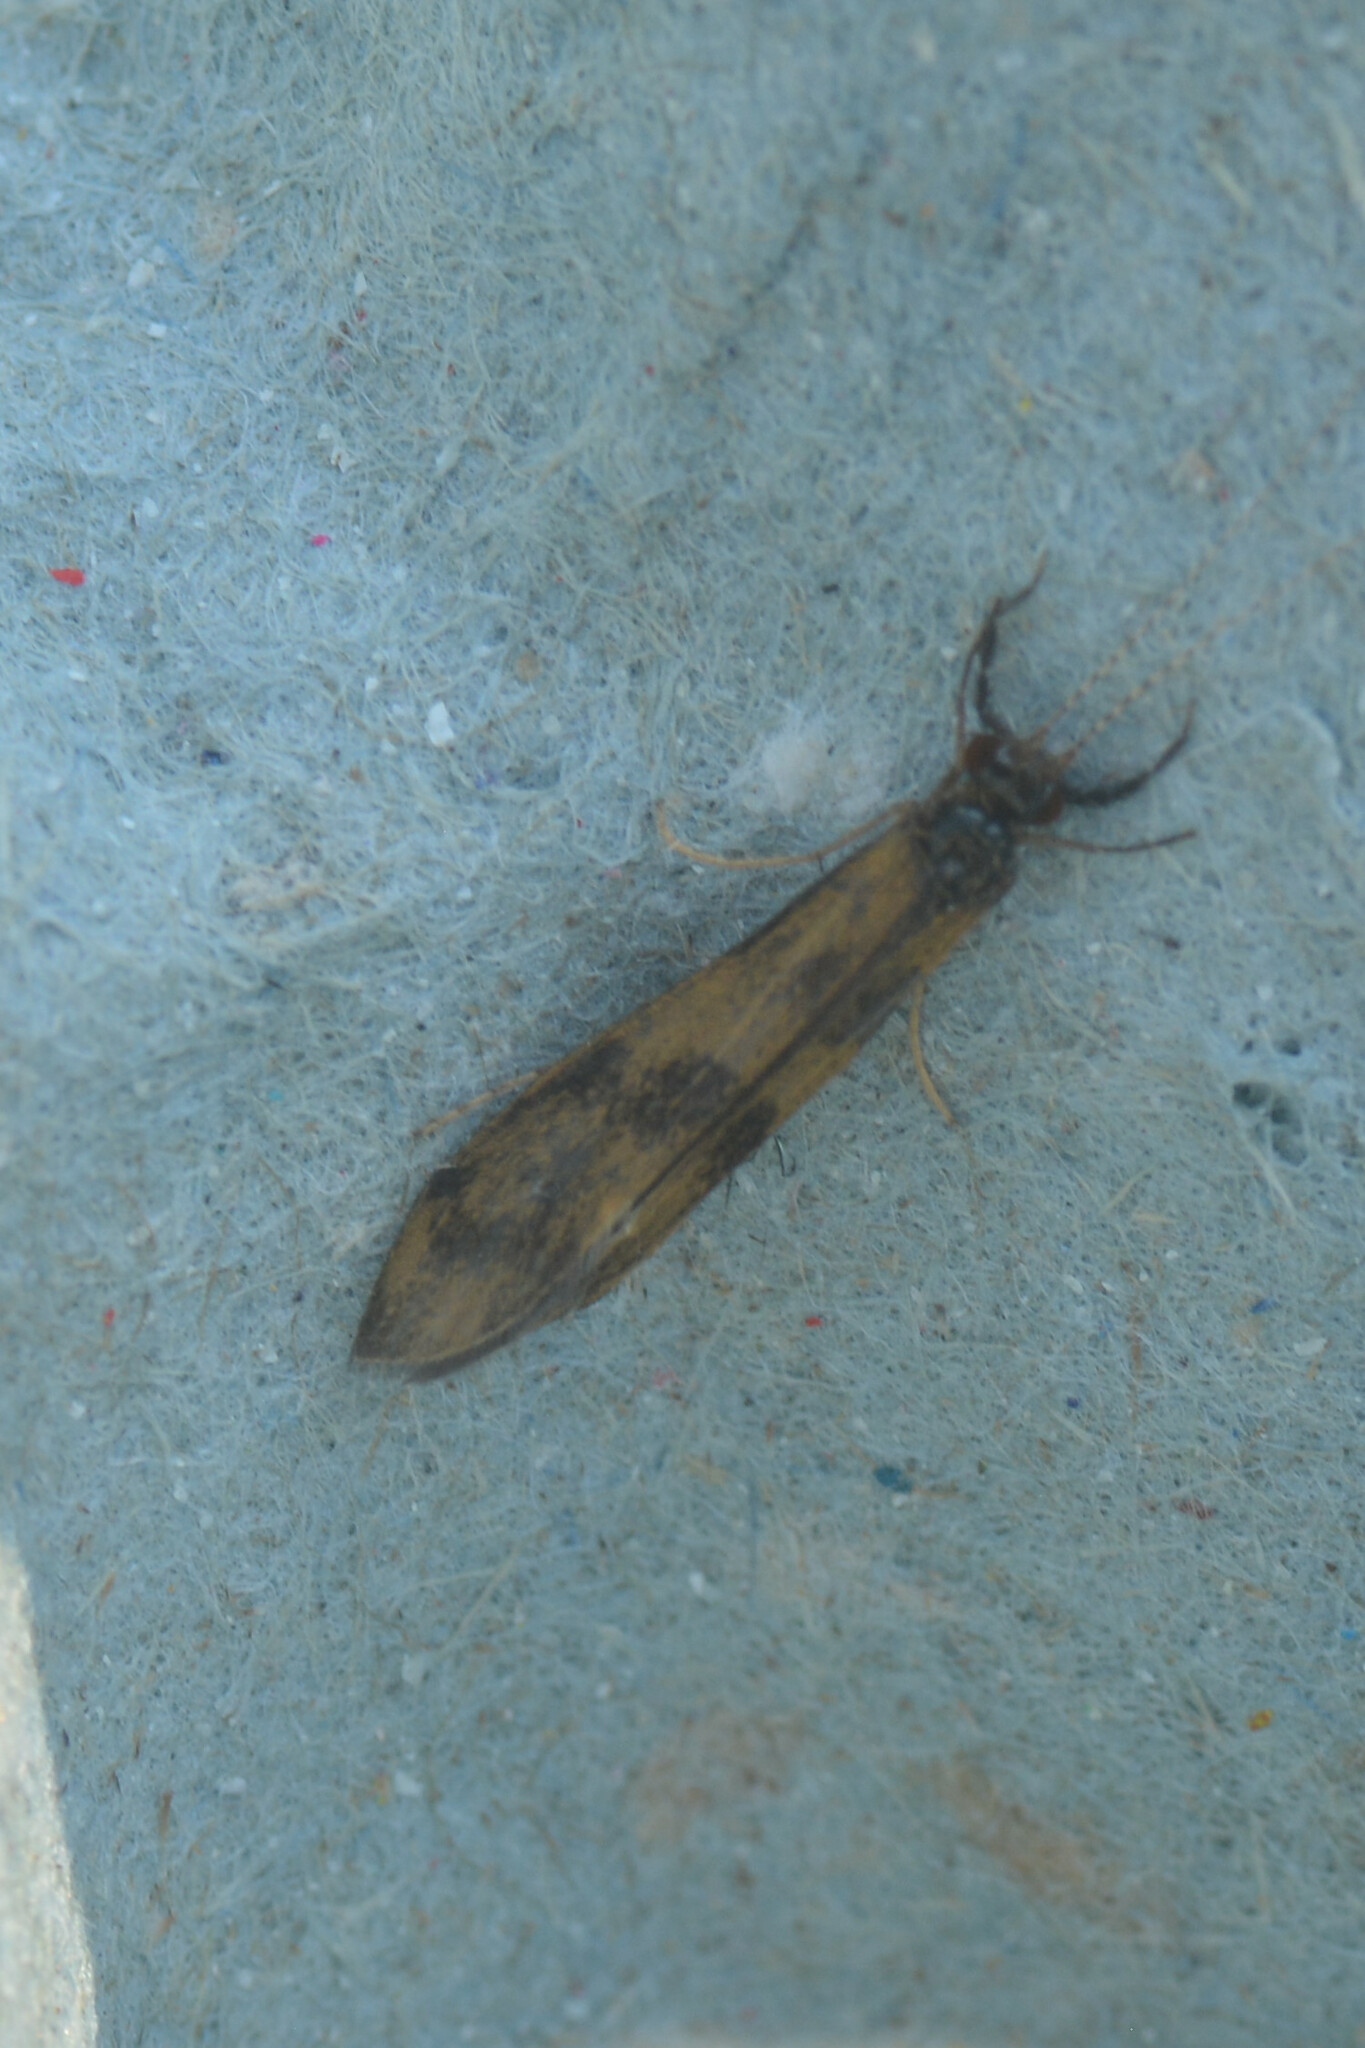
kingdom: Animalia
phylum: Arthropoda
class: Insecta
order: Trichoptera
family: Leptoceridae
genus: Mystacides
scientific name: Mystacides longicornis
